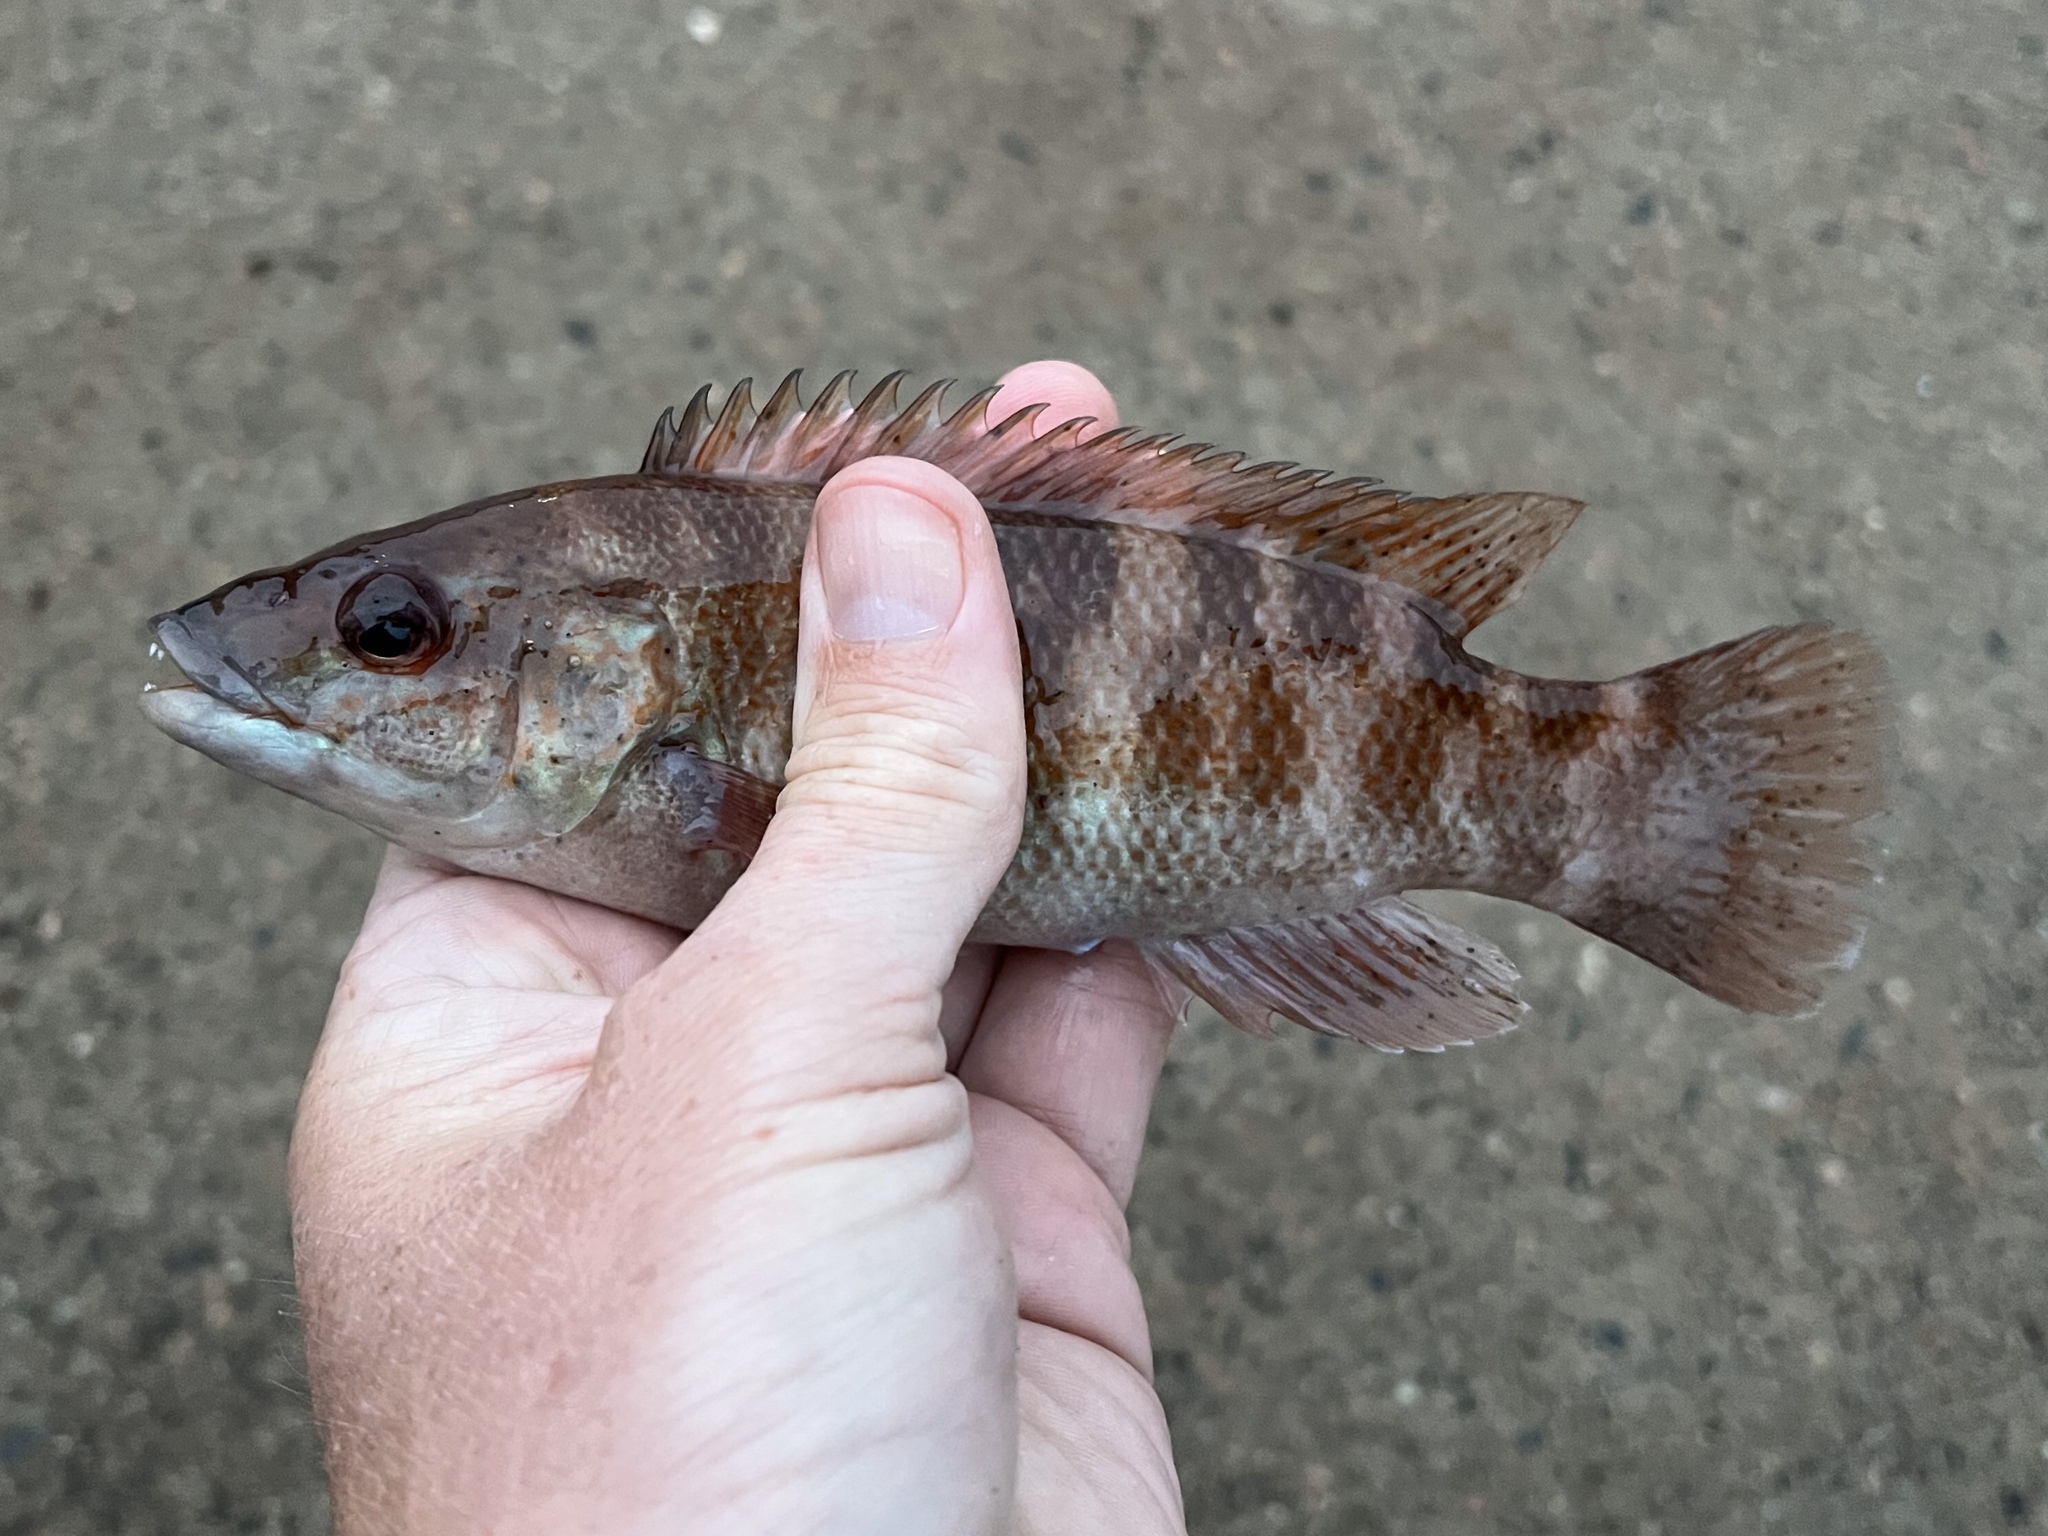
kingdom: Animalia
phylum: Chordata
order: Perciformes
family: Labridae
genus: Tautogolabrus
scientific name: Tautogolabrus adspersus
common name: Cunner
